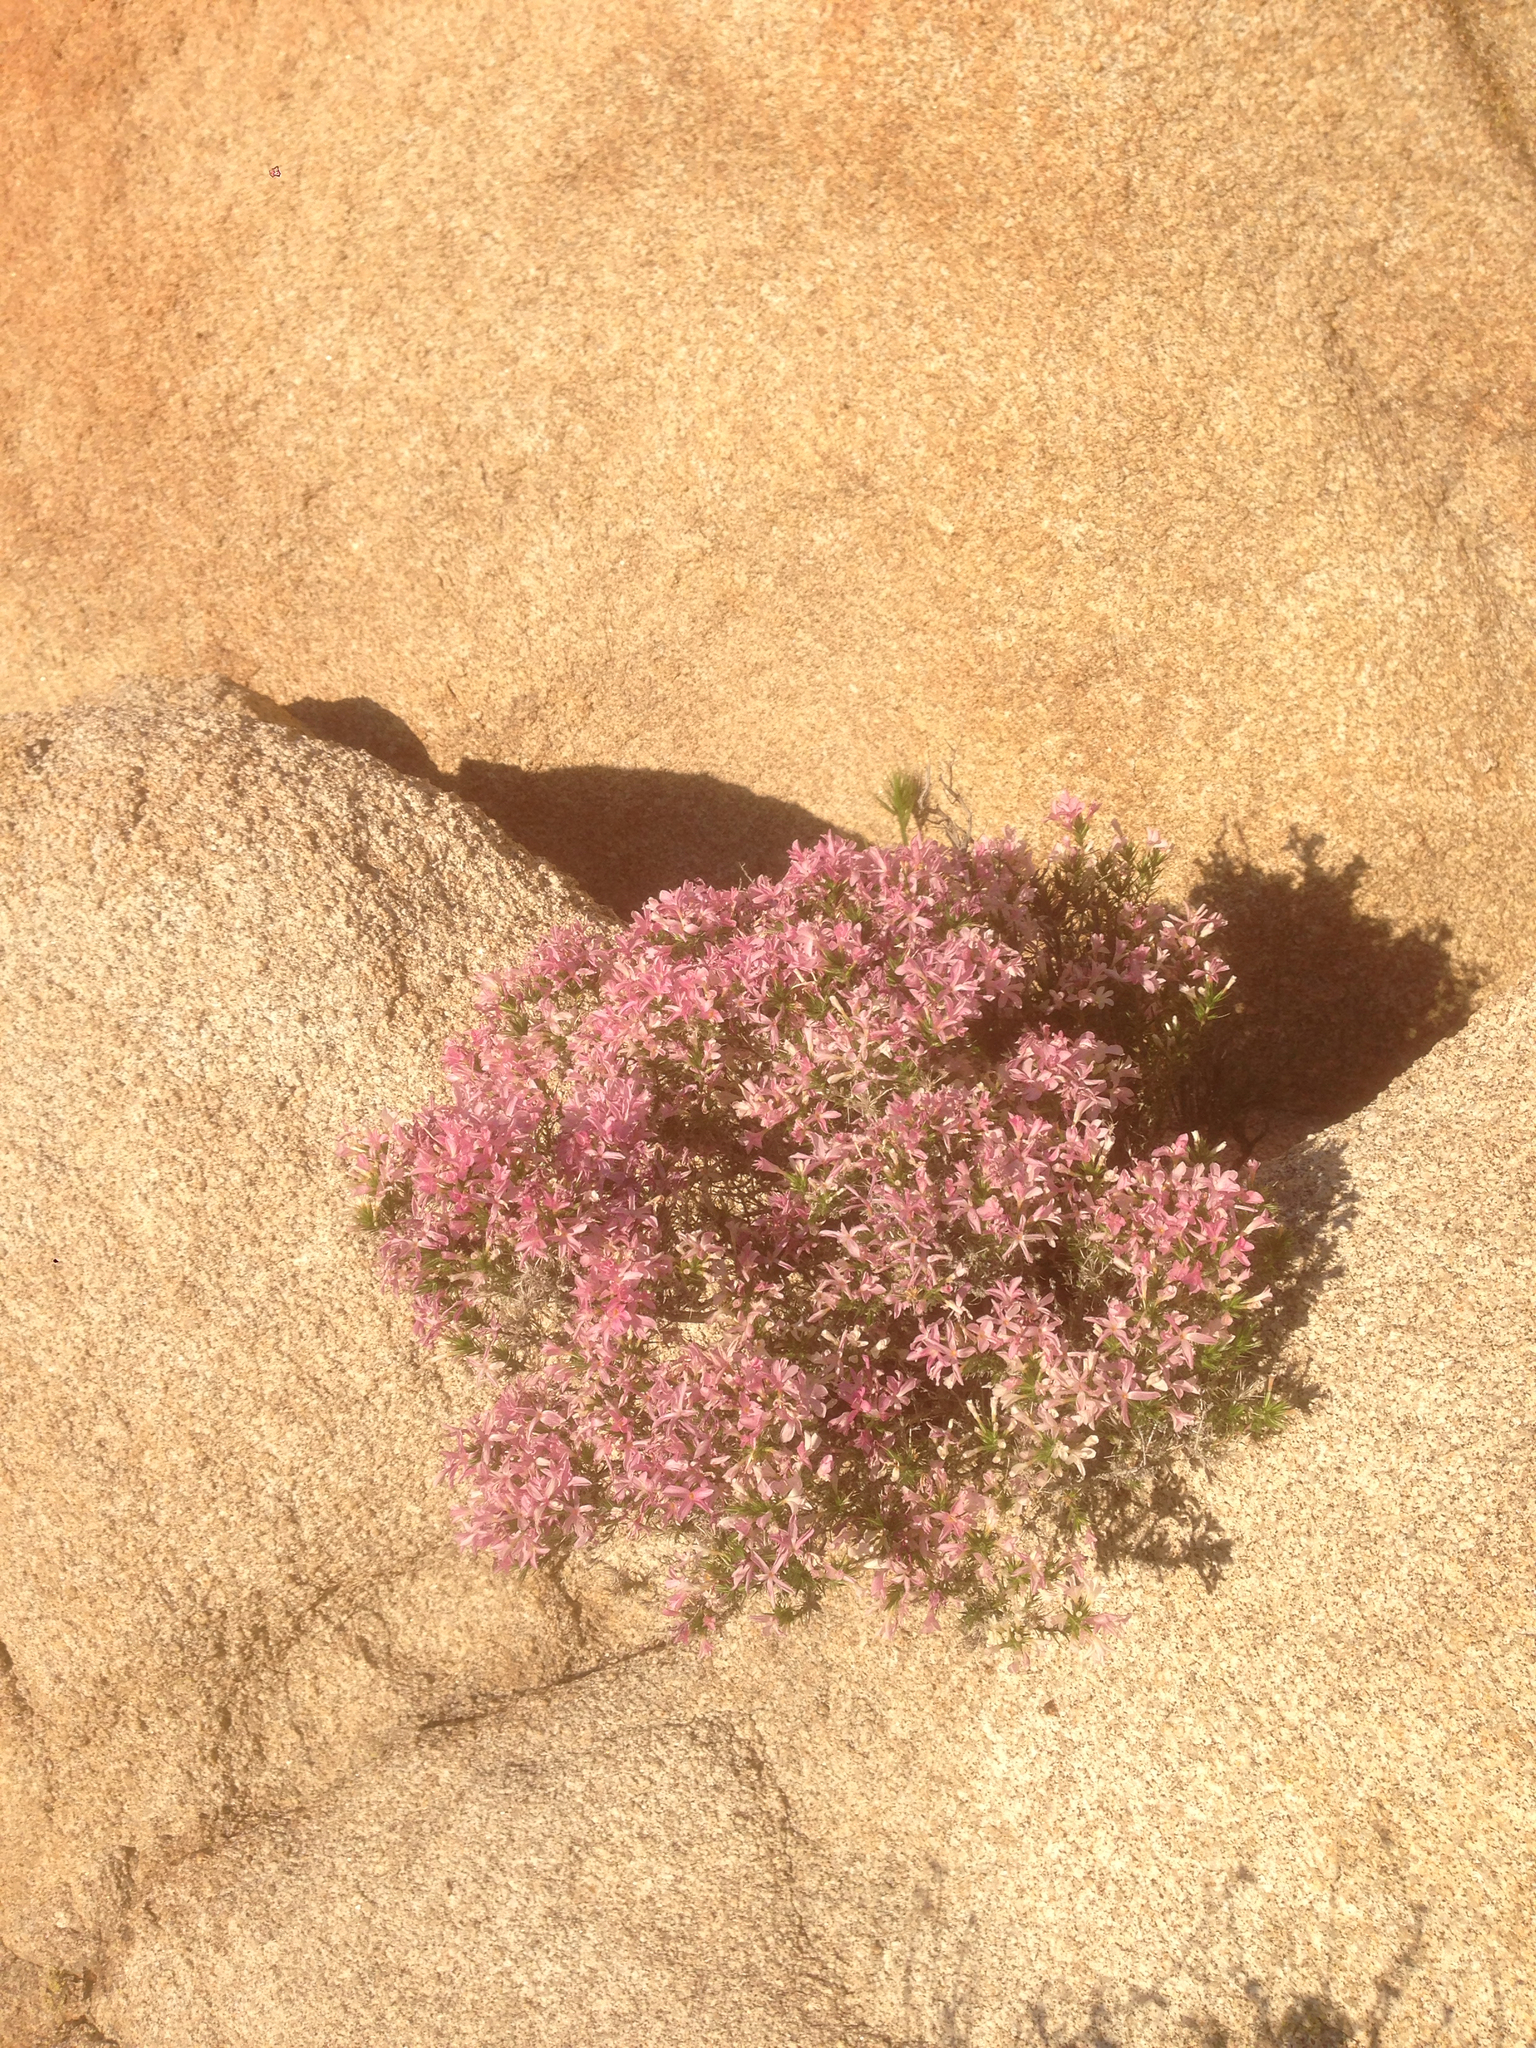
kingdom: Plantae
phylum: Tracheophyta
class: Magnoliopsida
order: Ericales
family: Polemoniaceae
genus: Linanthus
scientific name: Linanthus pungens
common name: Granite prickly phlox
